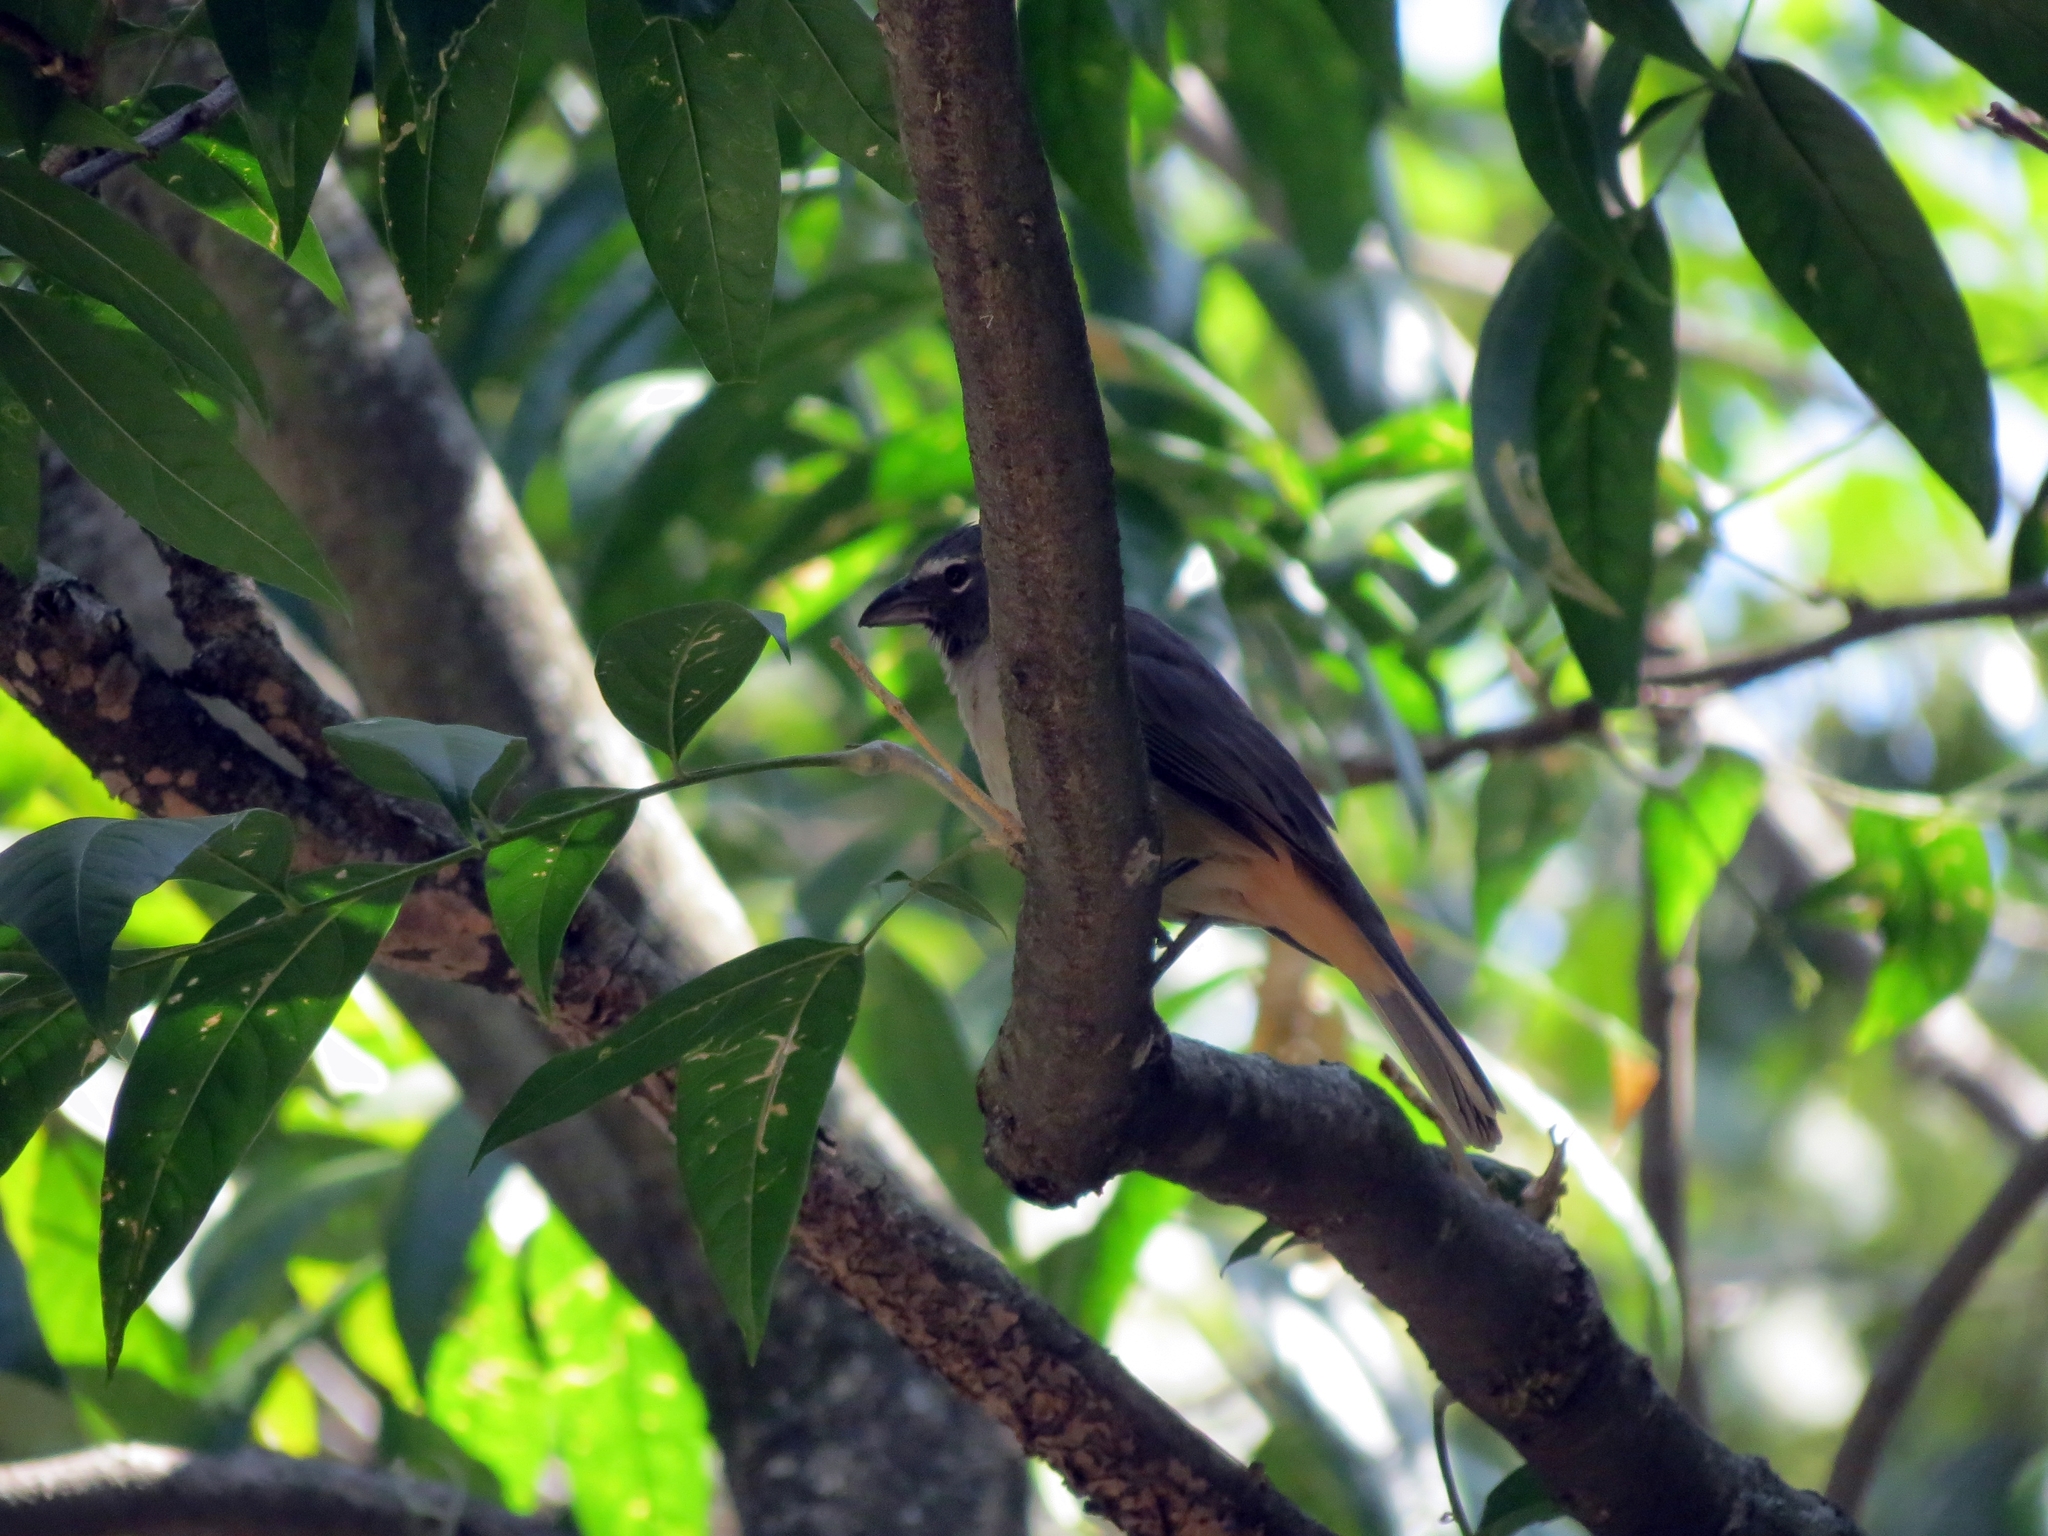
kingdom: Animalia
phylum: Chordata
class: Aves
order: Passeriformes
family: Thraupidae
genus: Saltator
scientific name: Saltator olivascens
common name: Caribbean grey saltator
